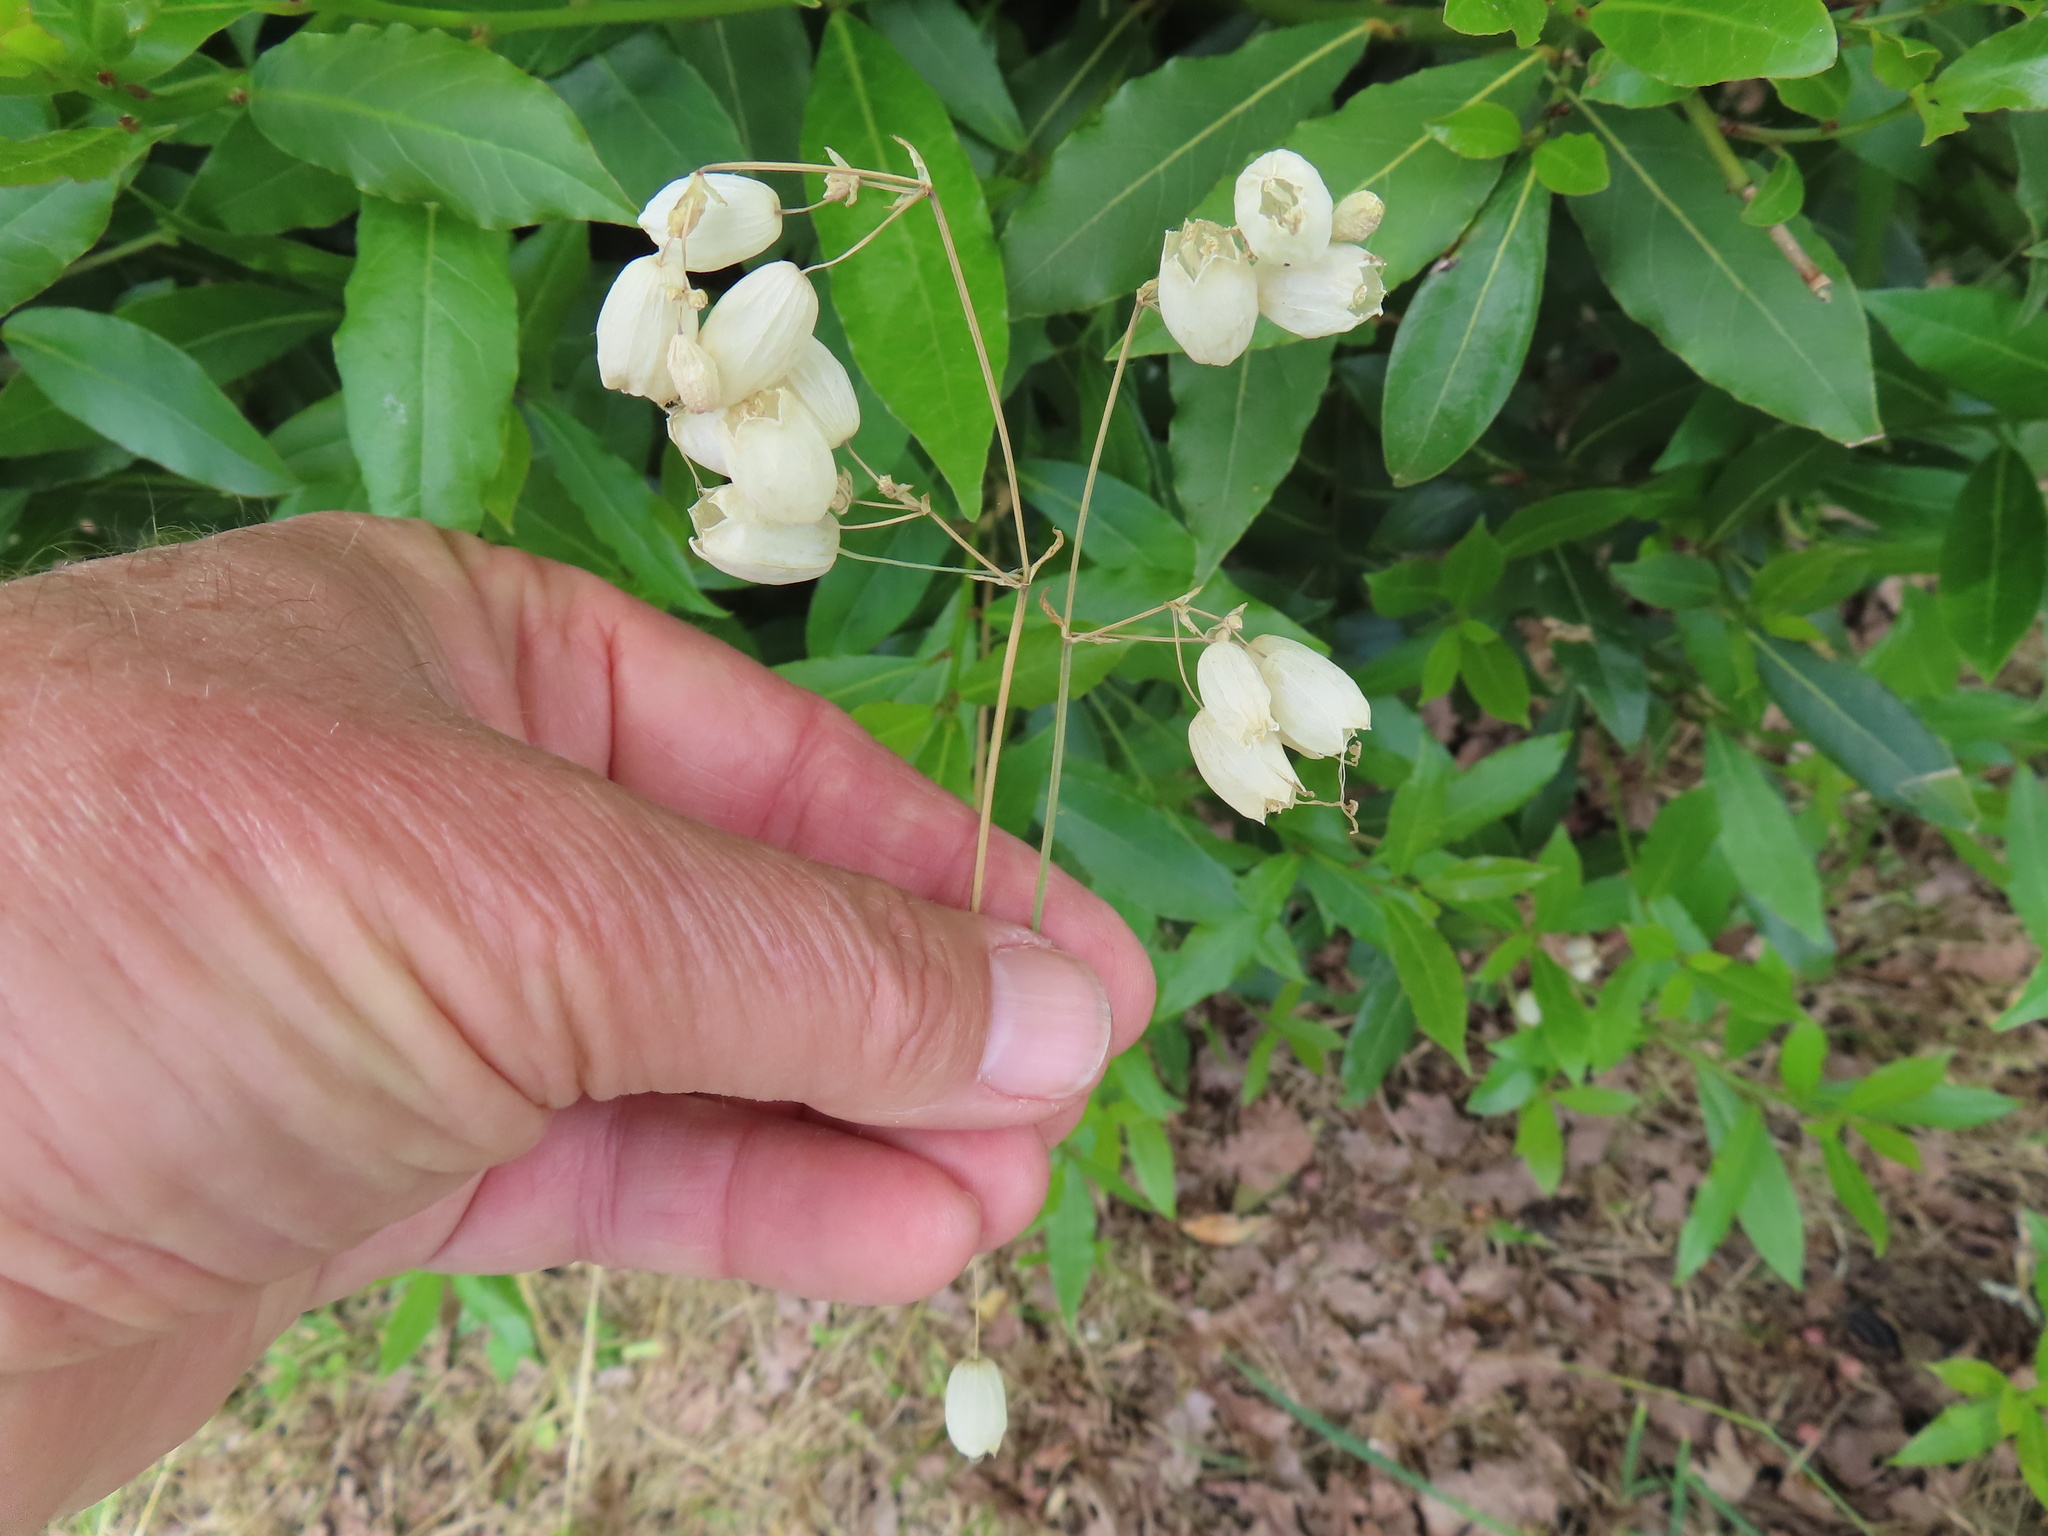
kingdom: Plantae
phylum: Tracheophyta
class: Magnoliopsida
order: Caryophyllales
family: Caryophyllaceae
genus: Silene
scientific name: Silene vulgaris
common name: Bladder campion
